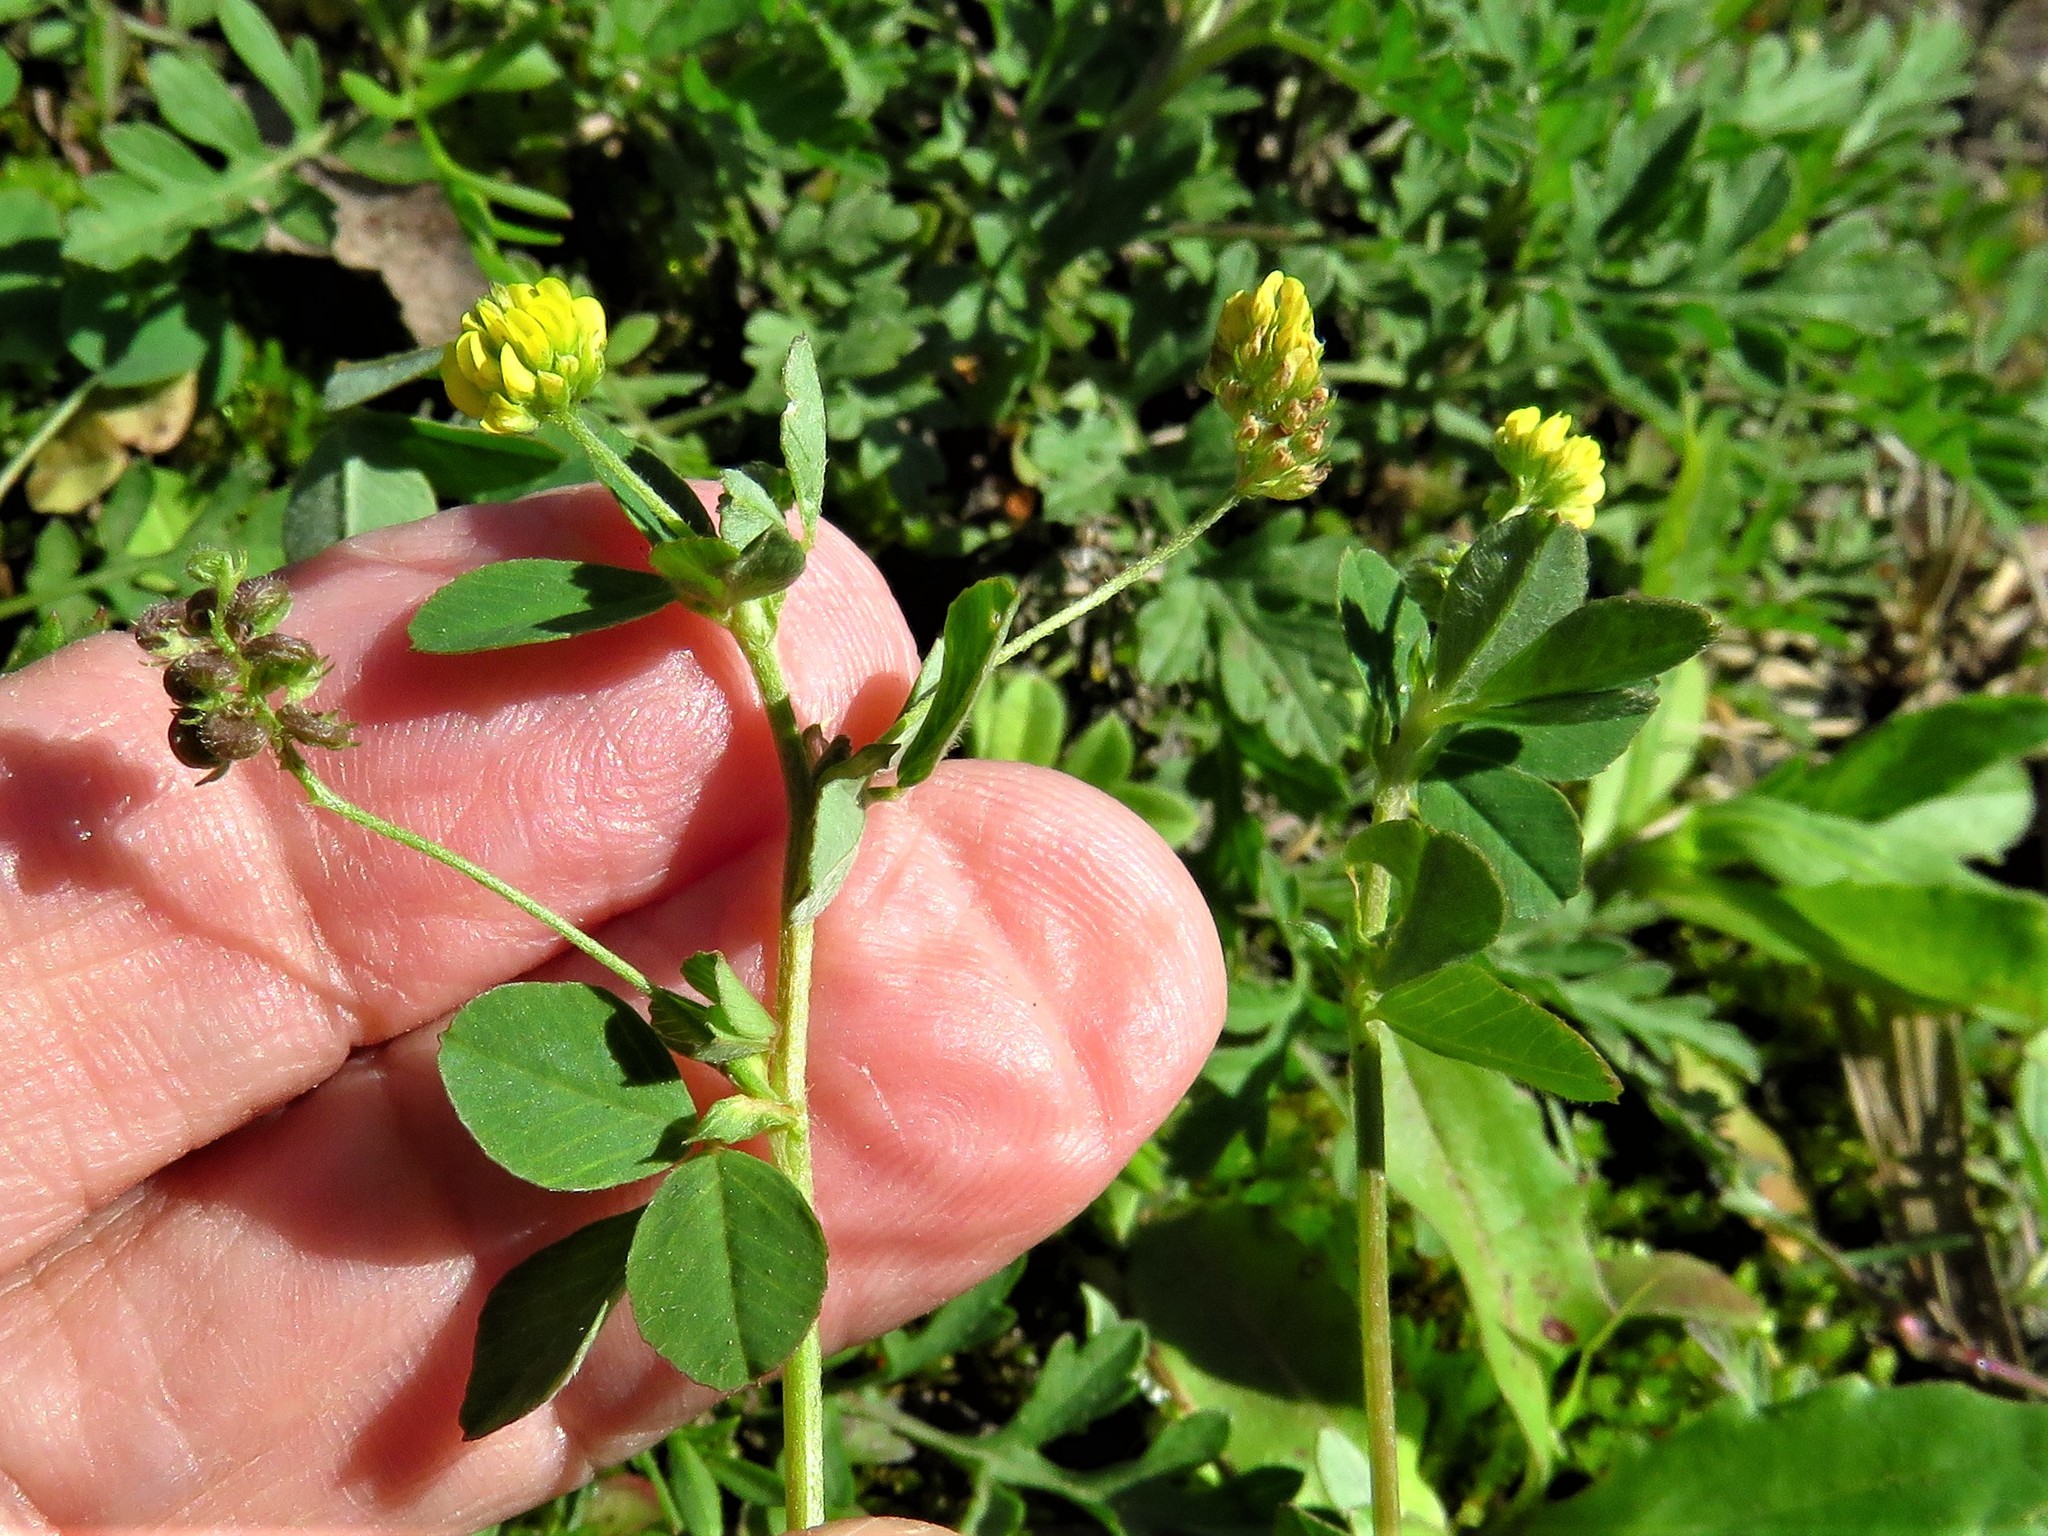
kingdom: Plantae
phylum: Tracheophyta
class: Magnoliopsida
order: Fabales
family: Fabaceae
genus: Medicago
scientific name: Medicago lupulina
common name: Black medick
